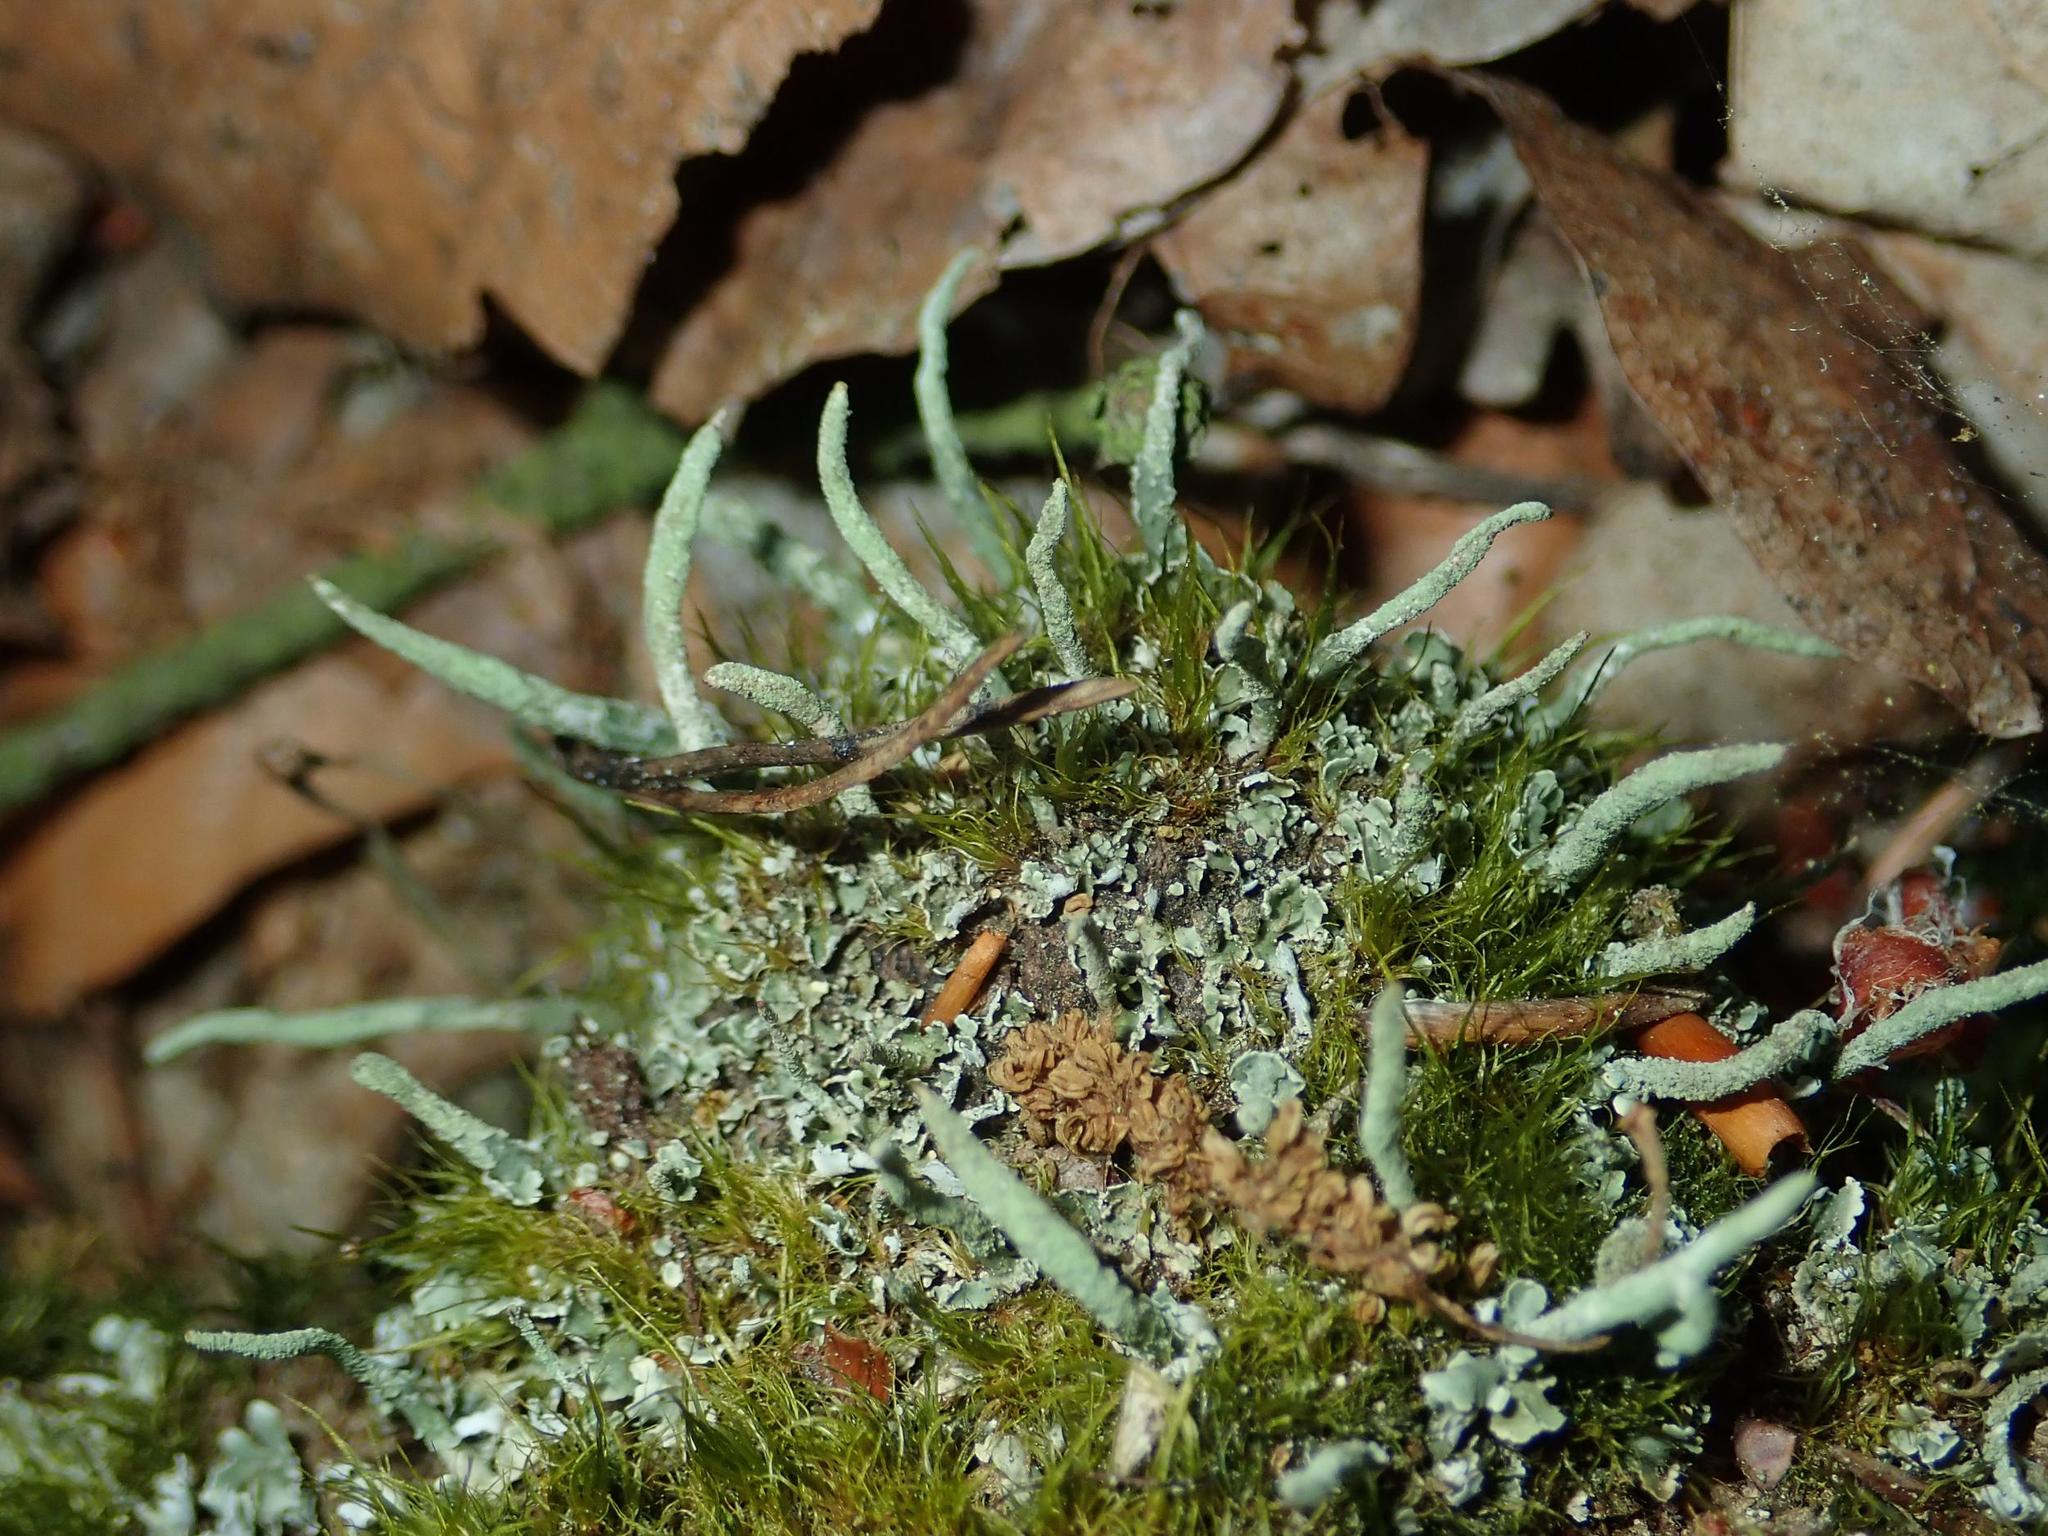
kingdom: Fungi
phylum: Ascomycota
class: Lecanoromycetes
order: Lecanorales
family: Cladoniaceae
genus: Cladonia
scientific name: Cladonia coniocraea
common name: Common powderhorn
